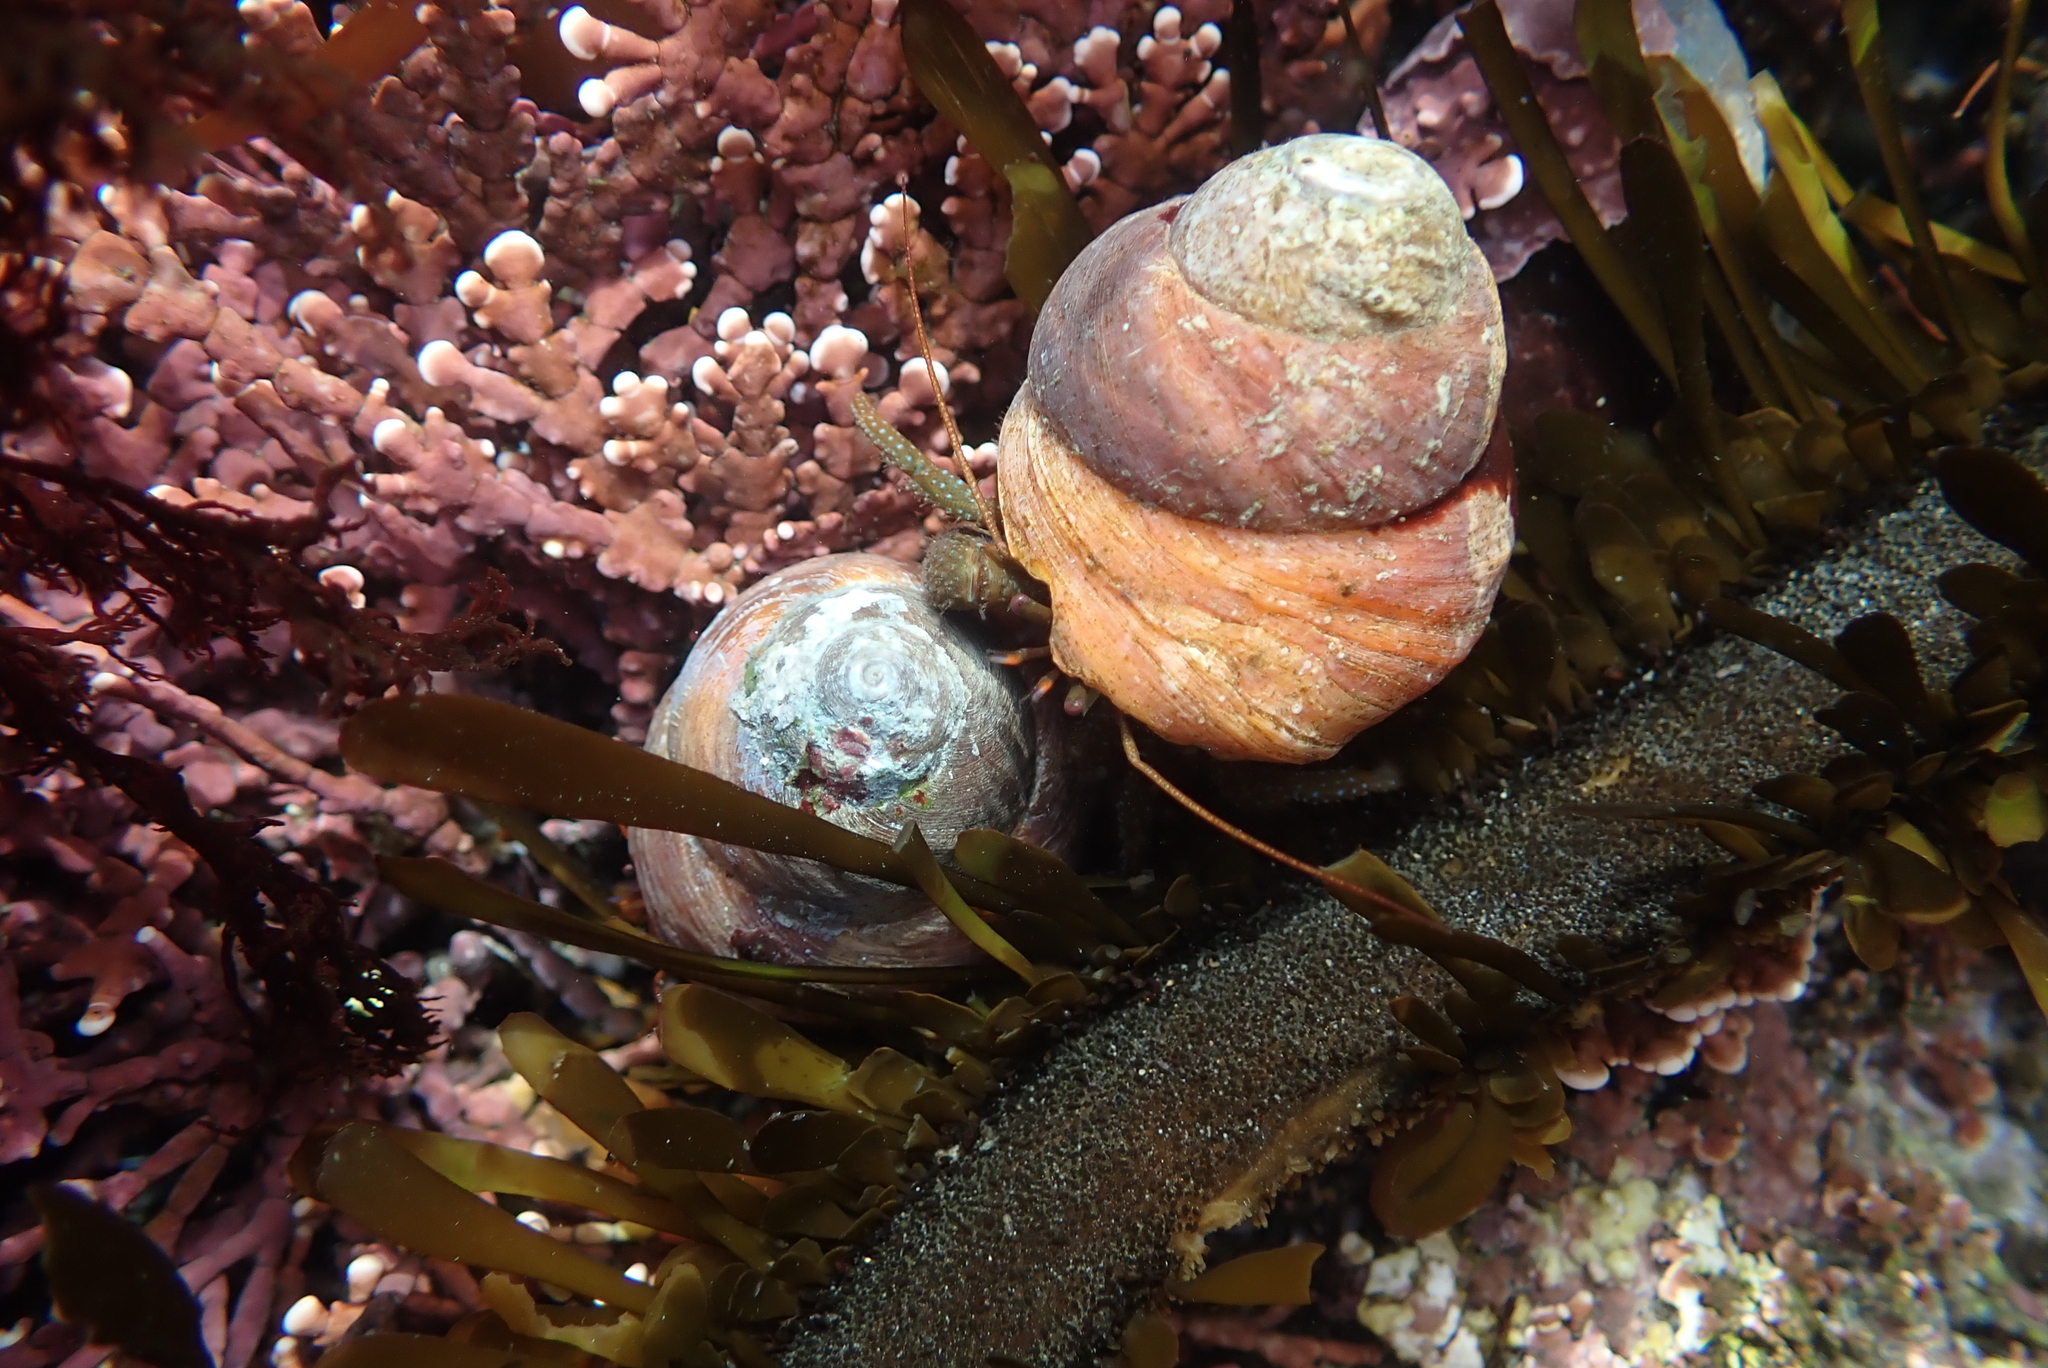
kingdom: Animalia
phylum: Arthropoda
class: Malacostraca
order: Decapoda
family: Paguridae
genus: Pagurus
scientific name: Pagurus granosimanus
